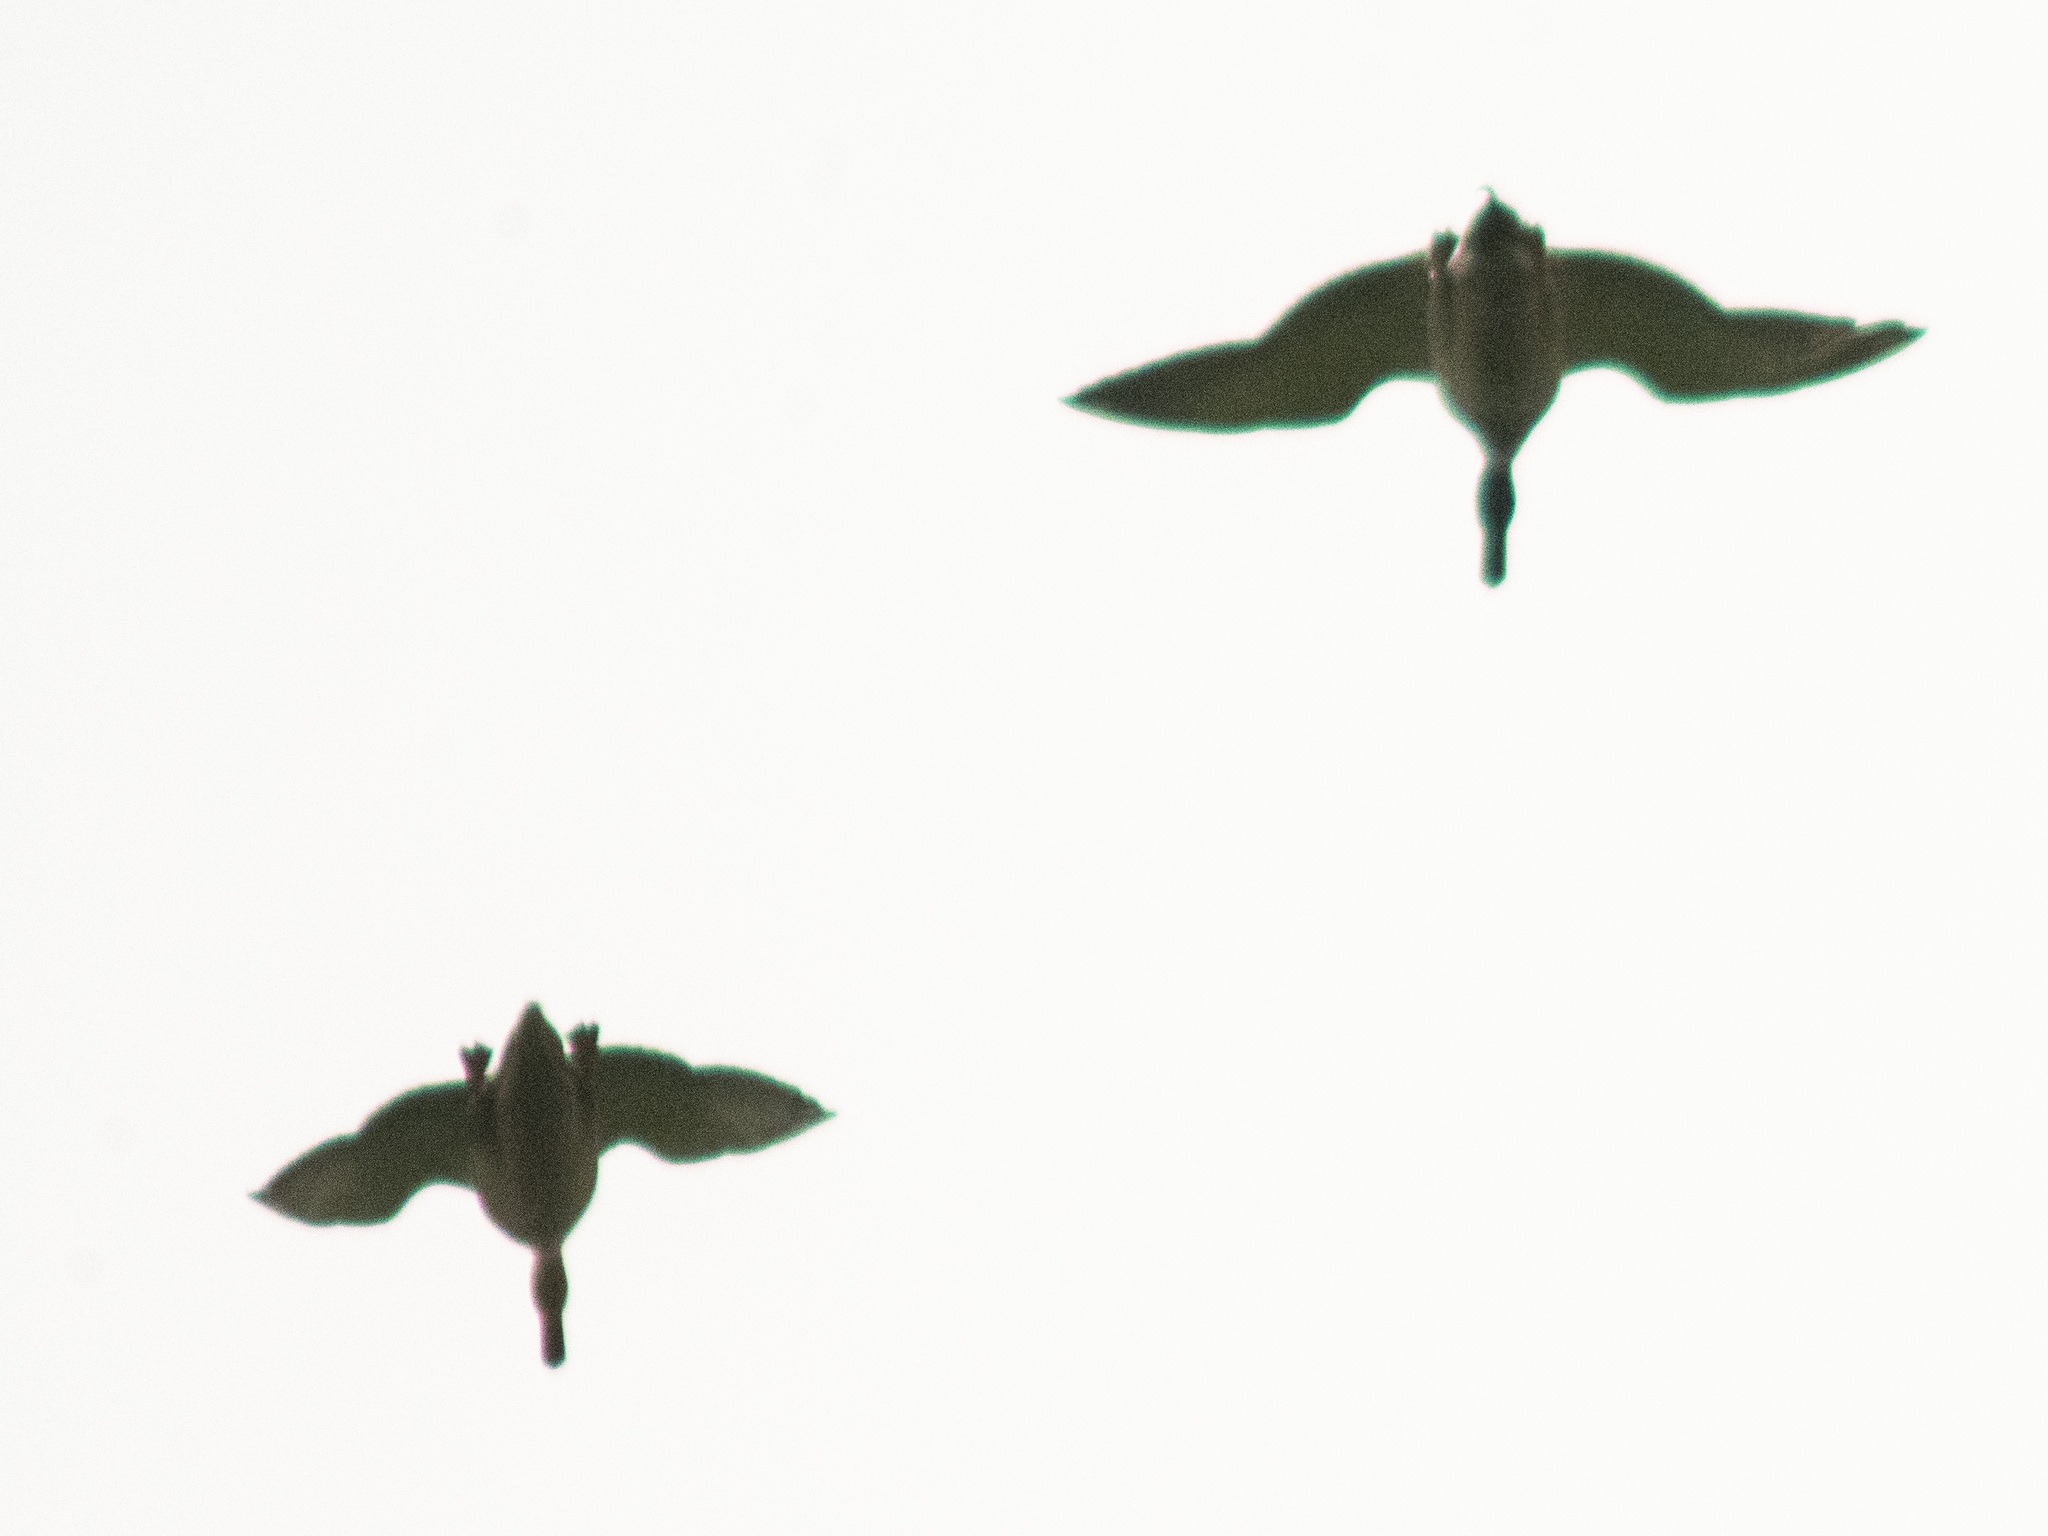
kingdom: Animalia
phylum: Chordata
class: Aves
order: Anseriformes
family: Anatidae
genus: Anas
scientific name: Anas platyrhynchos
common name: Mallard
